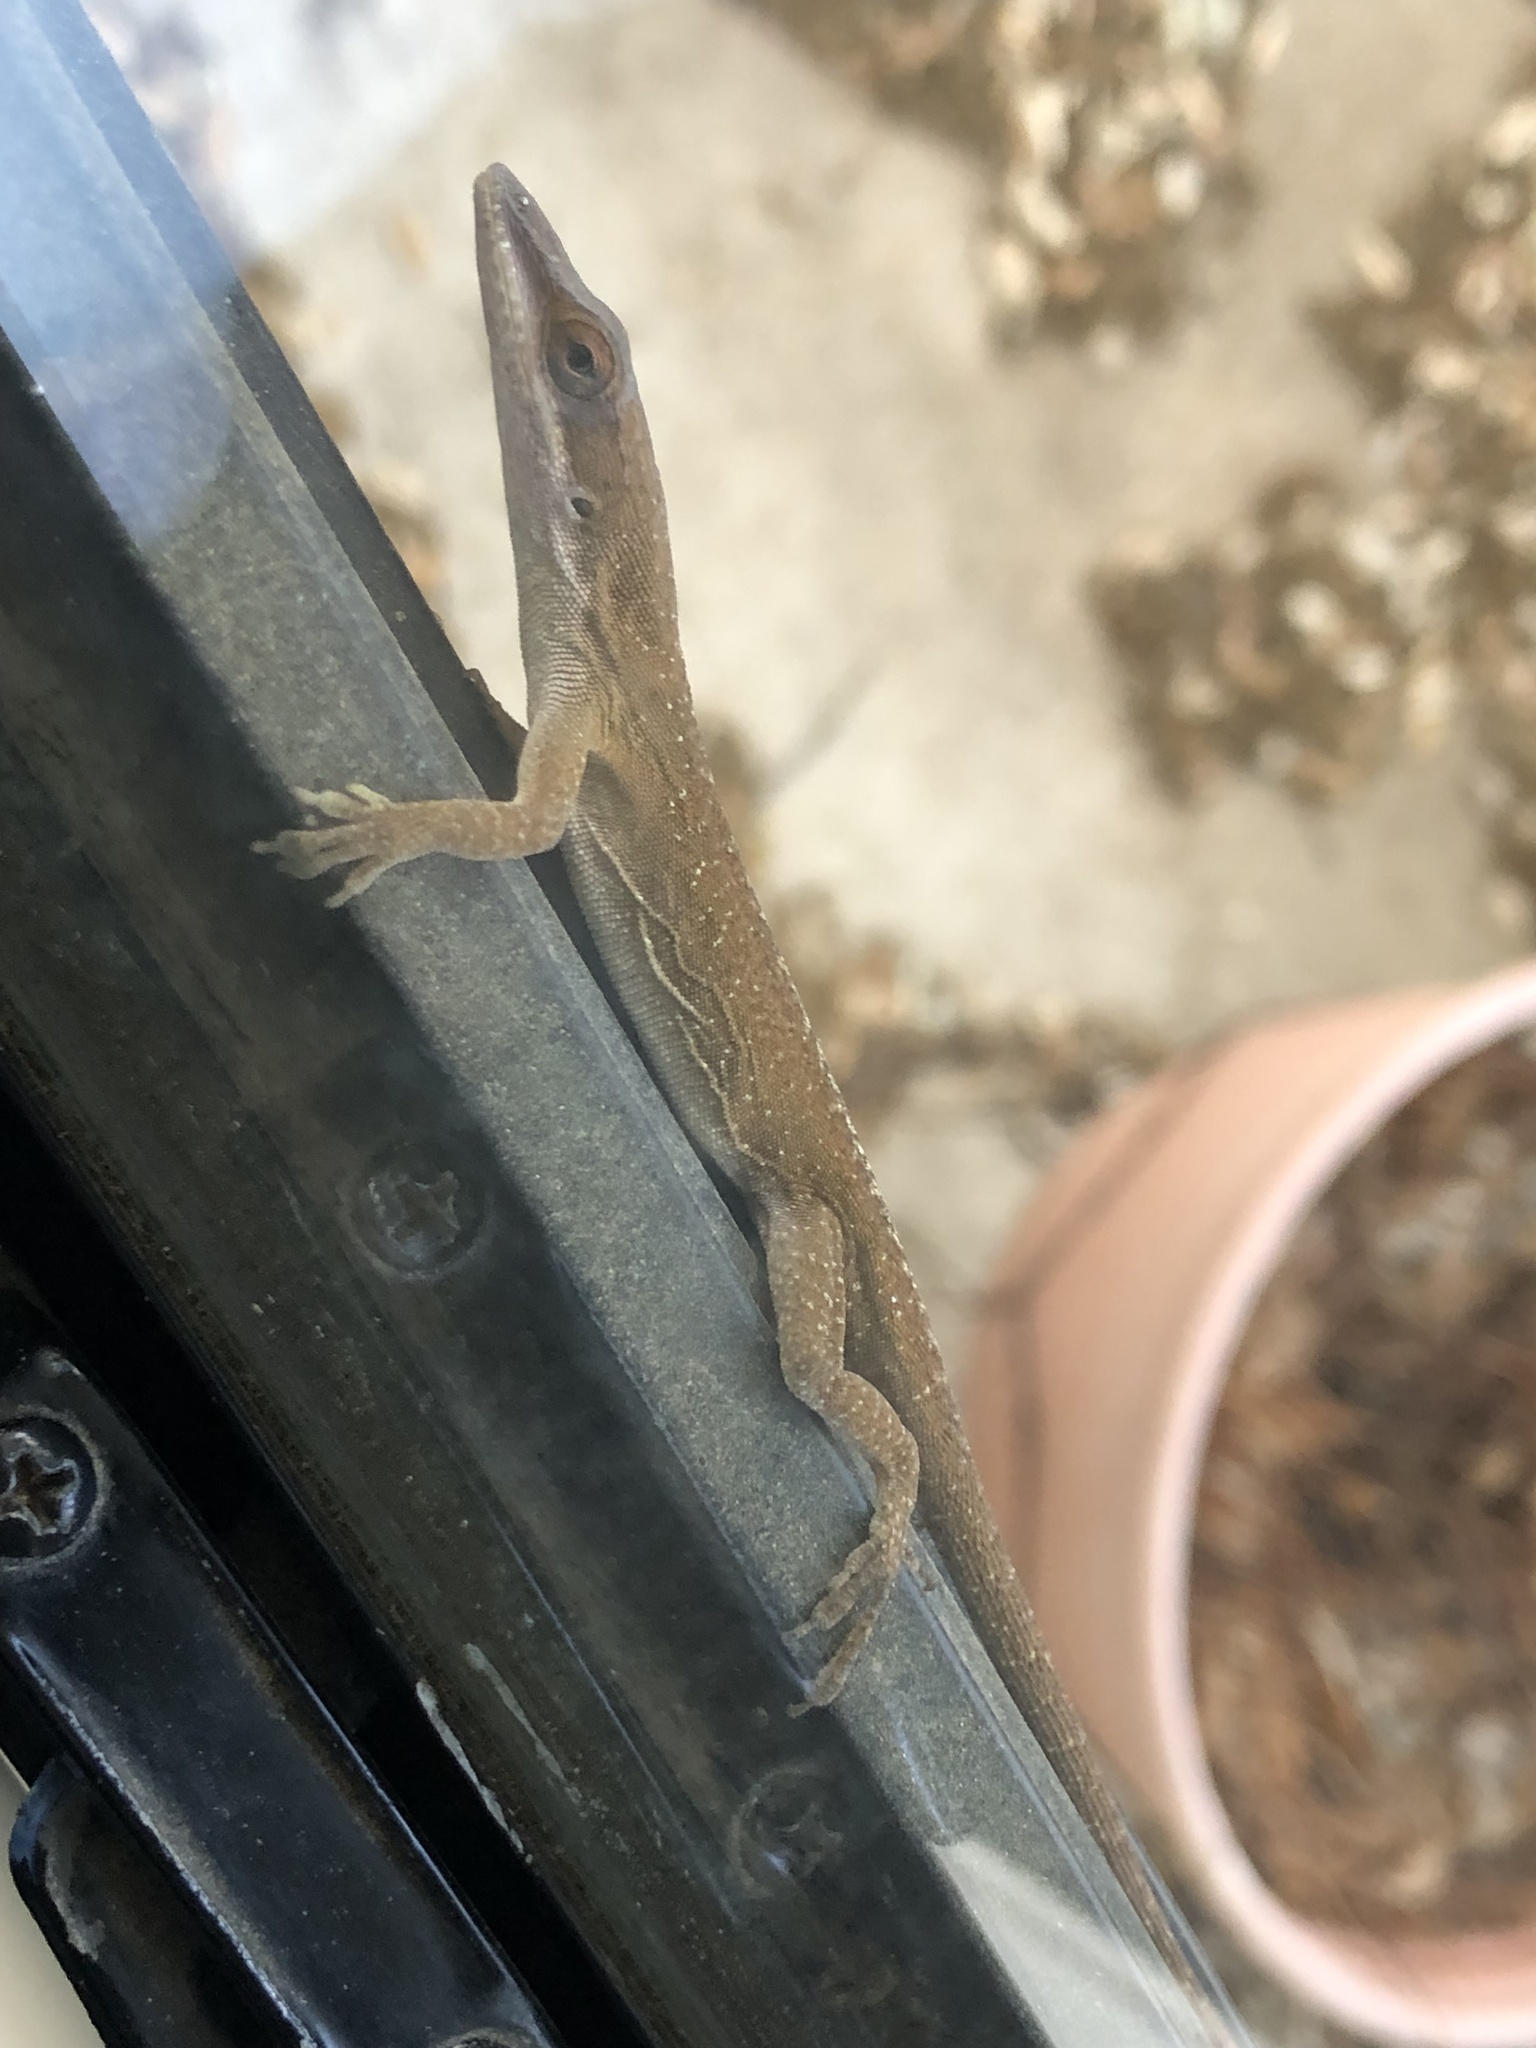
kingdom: Animalia
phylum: Chordata
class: Squamata
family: Dactyloidae
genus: Anolis
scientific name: Anolis carolinensis
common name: Green anole
